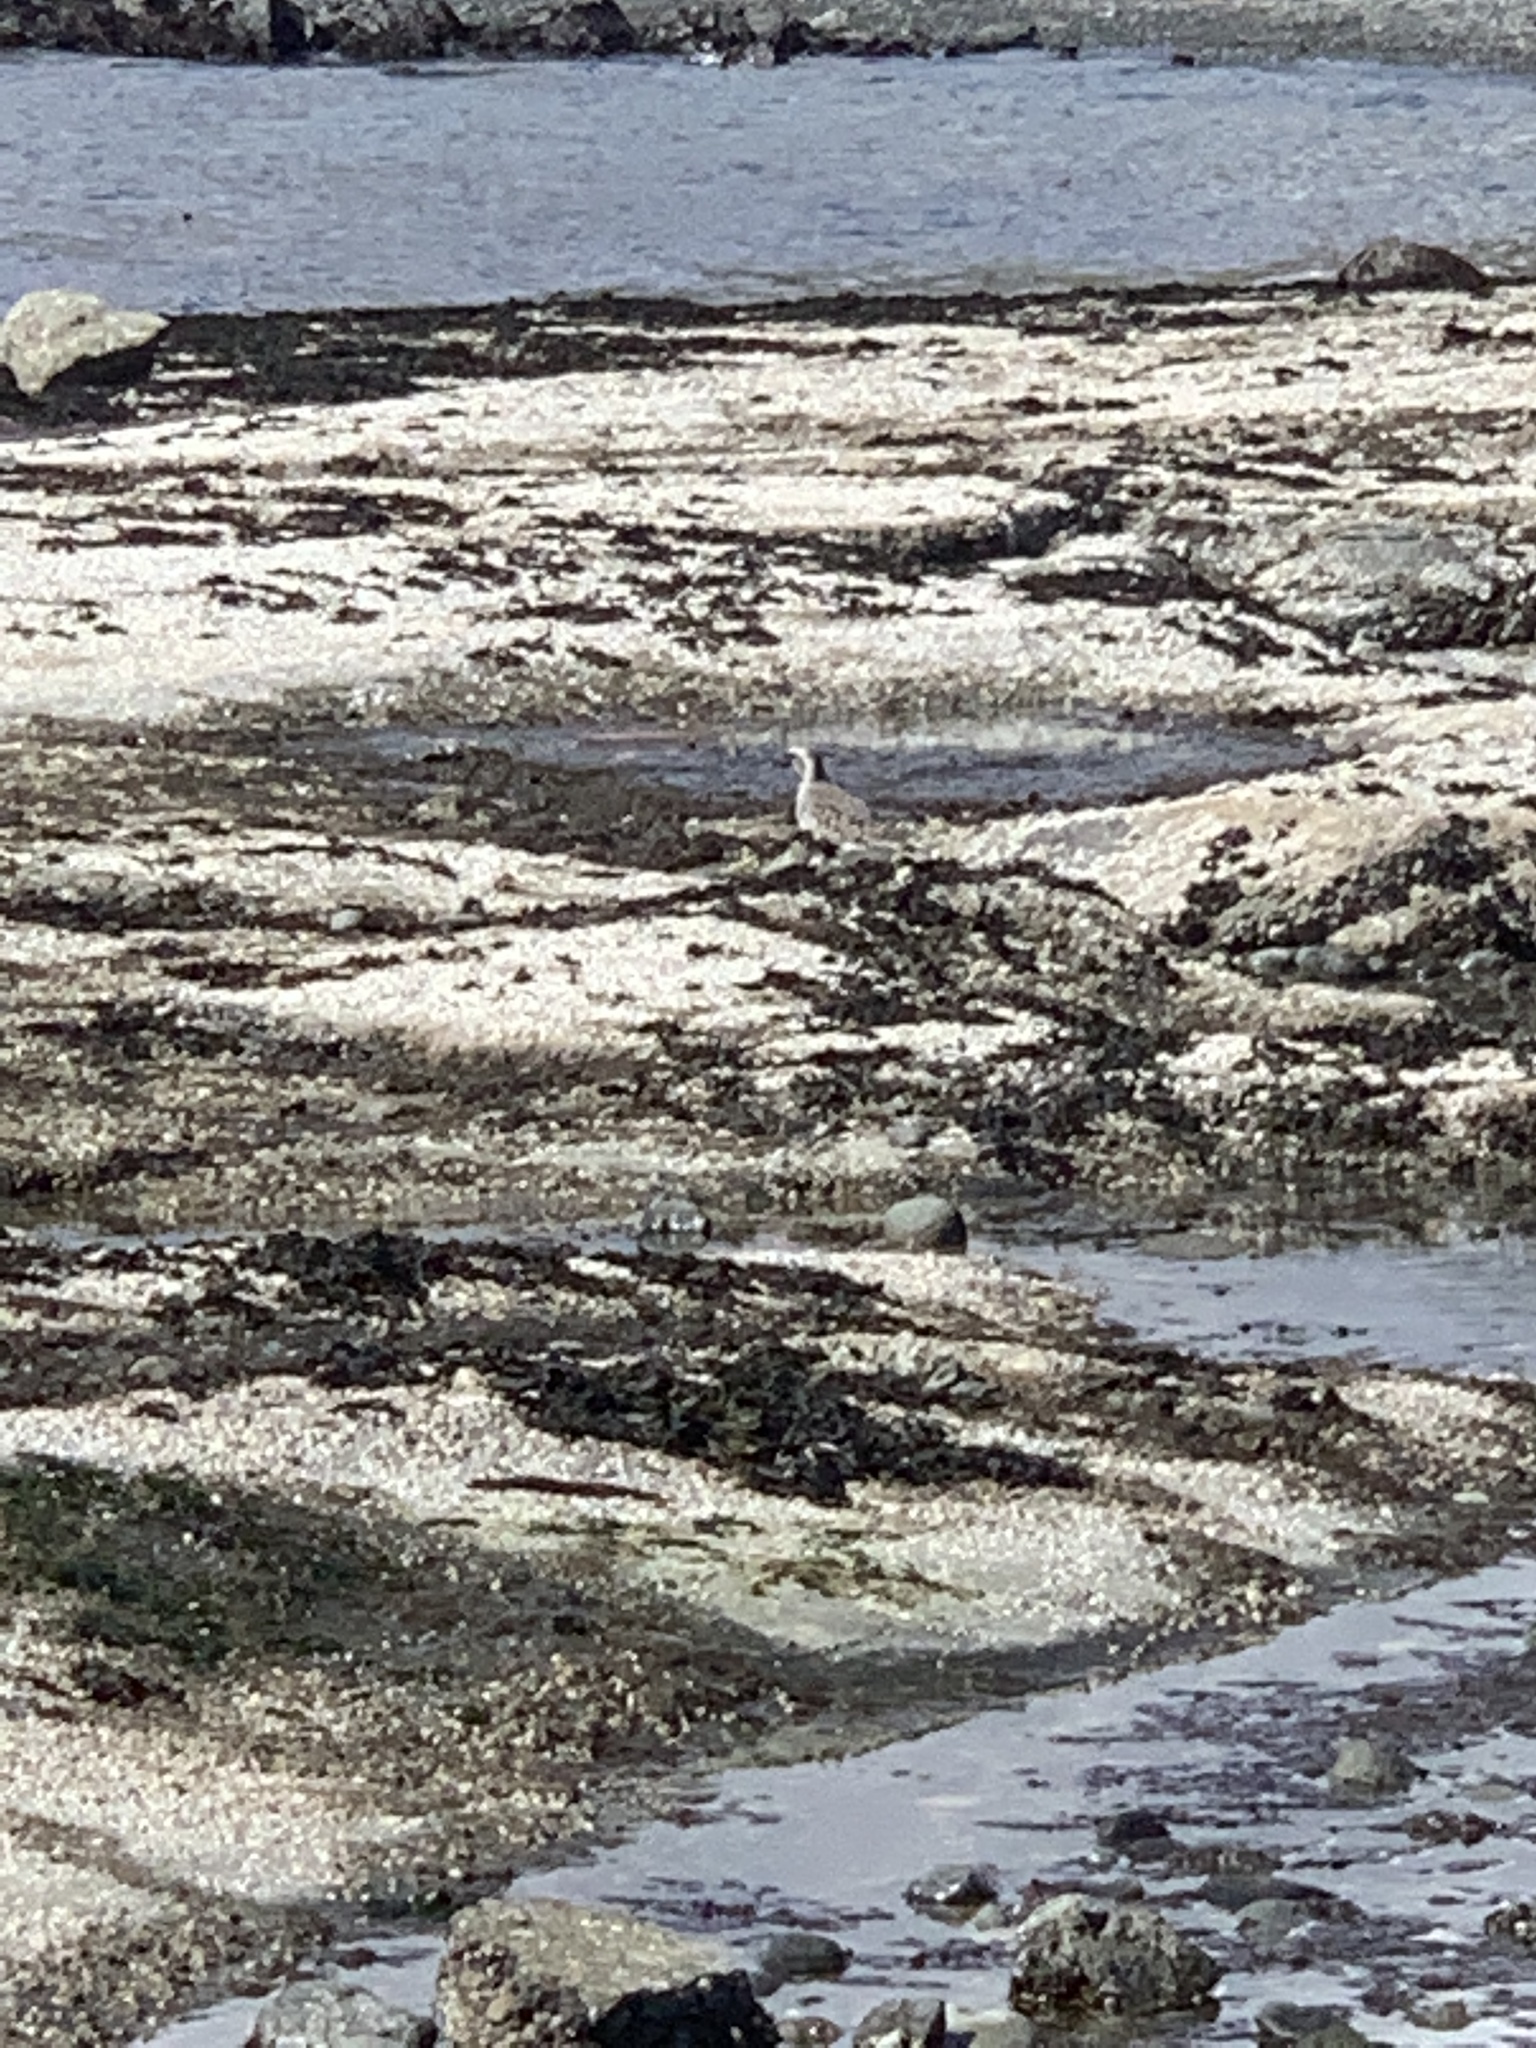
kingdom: Animalia
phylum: Chordata
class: Aves
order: Charadriiformes
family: Charadriidae
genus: Pluvialis
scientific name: Pluvialis squatarola
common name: Grey plover
